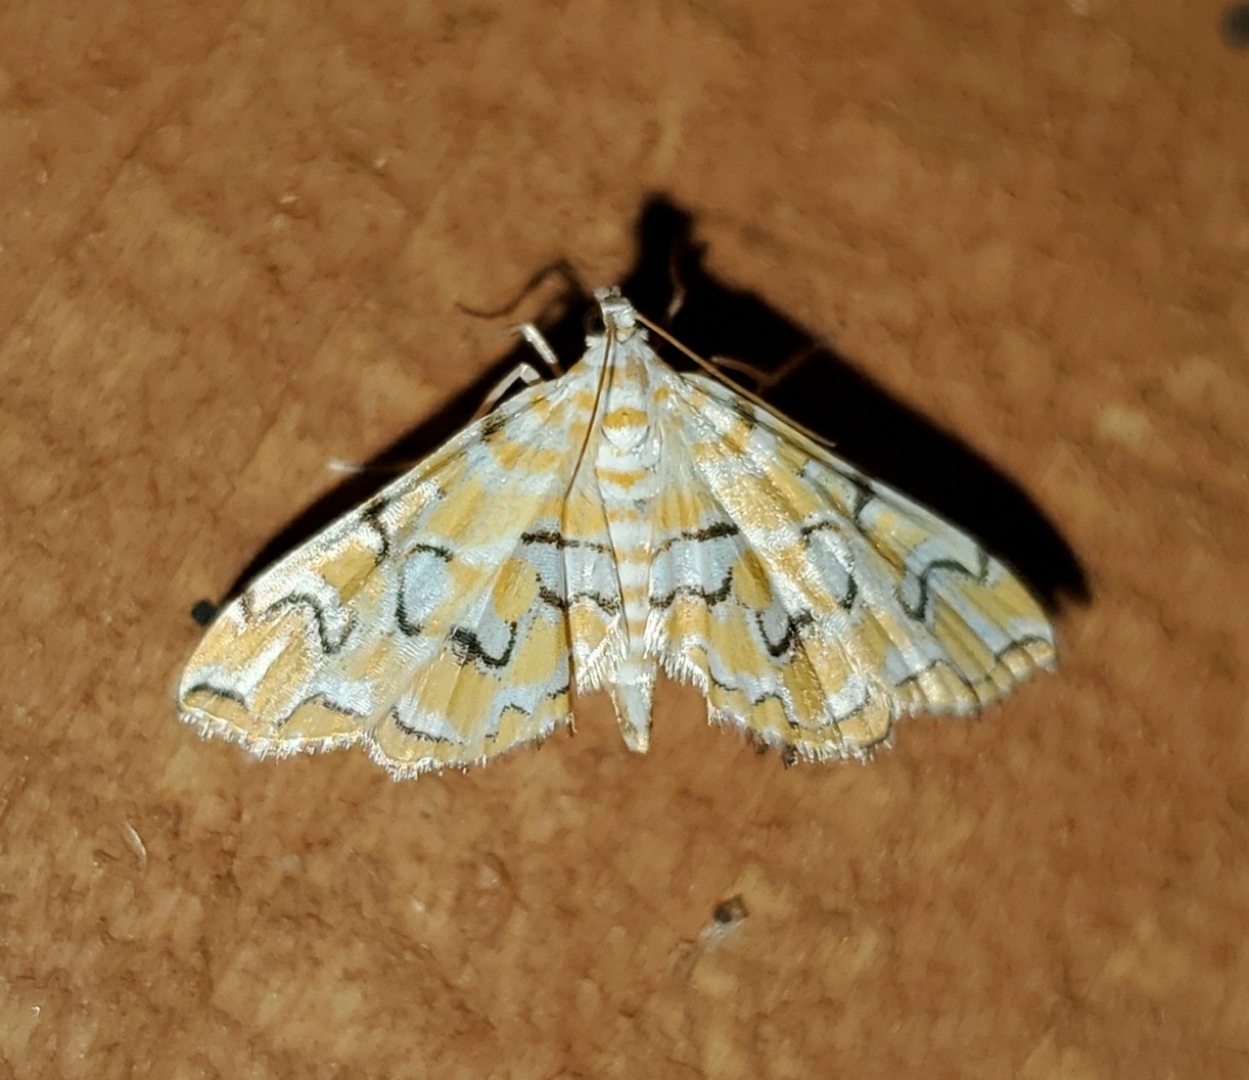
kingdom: Animalia
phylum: Arthropoda
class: Insecta
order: Lepidoptera
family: Crambidae
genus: Elophila
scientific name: Elophila icciusalis
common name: Pondside pyralid moth
